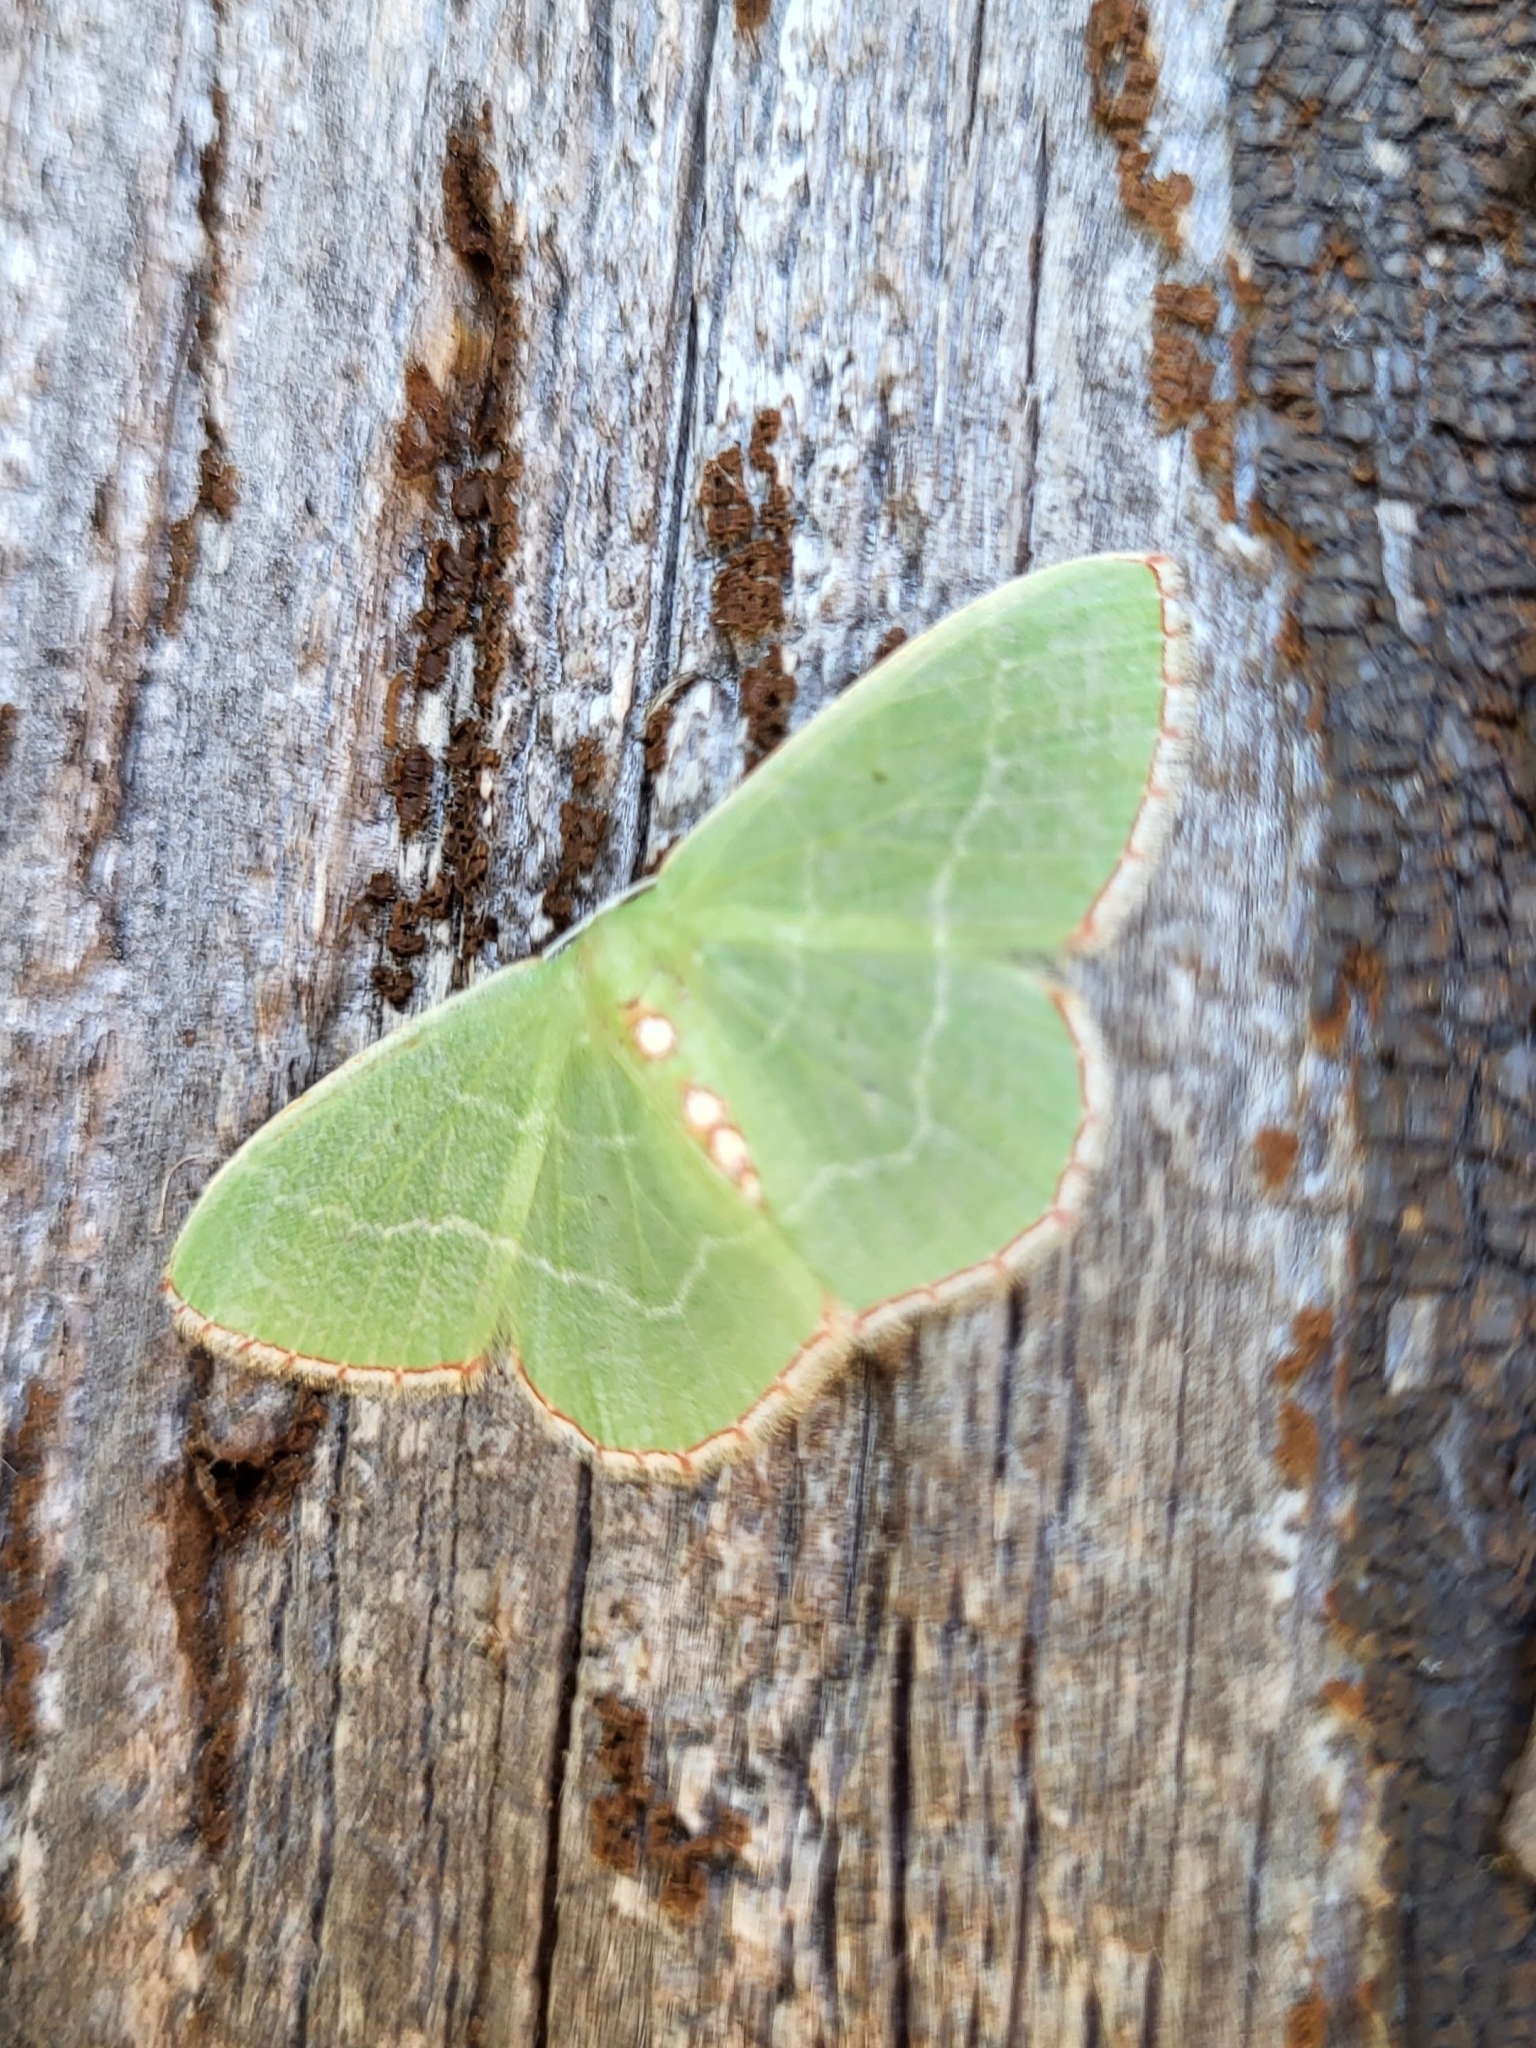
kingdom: Animalia
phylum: Arthropoda
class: Insecta
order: Lepidoptera
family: Geometridae
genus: Nemoria
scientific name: Nemoria lixaria
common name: Red-bordered emerald
